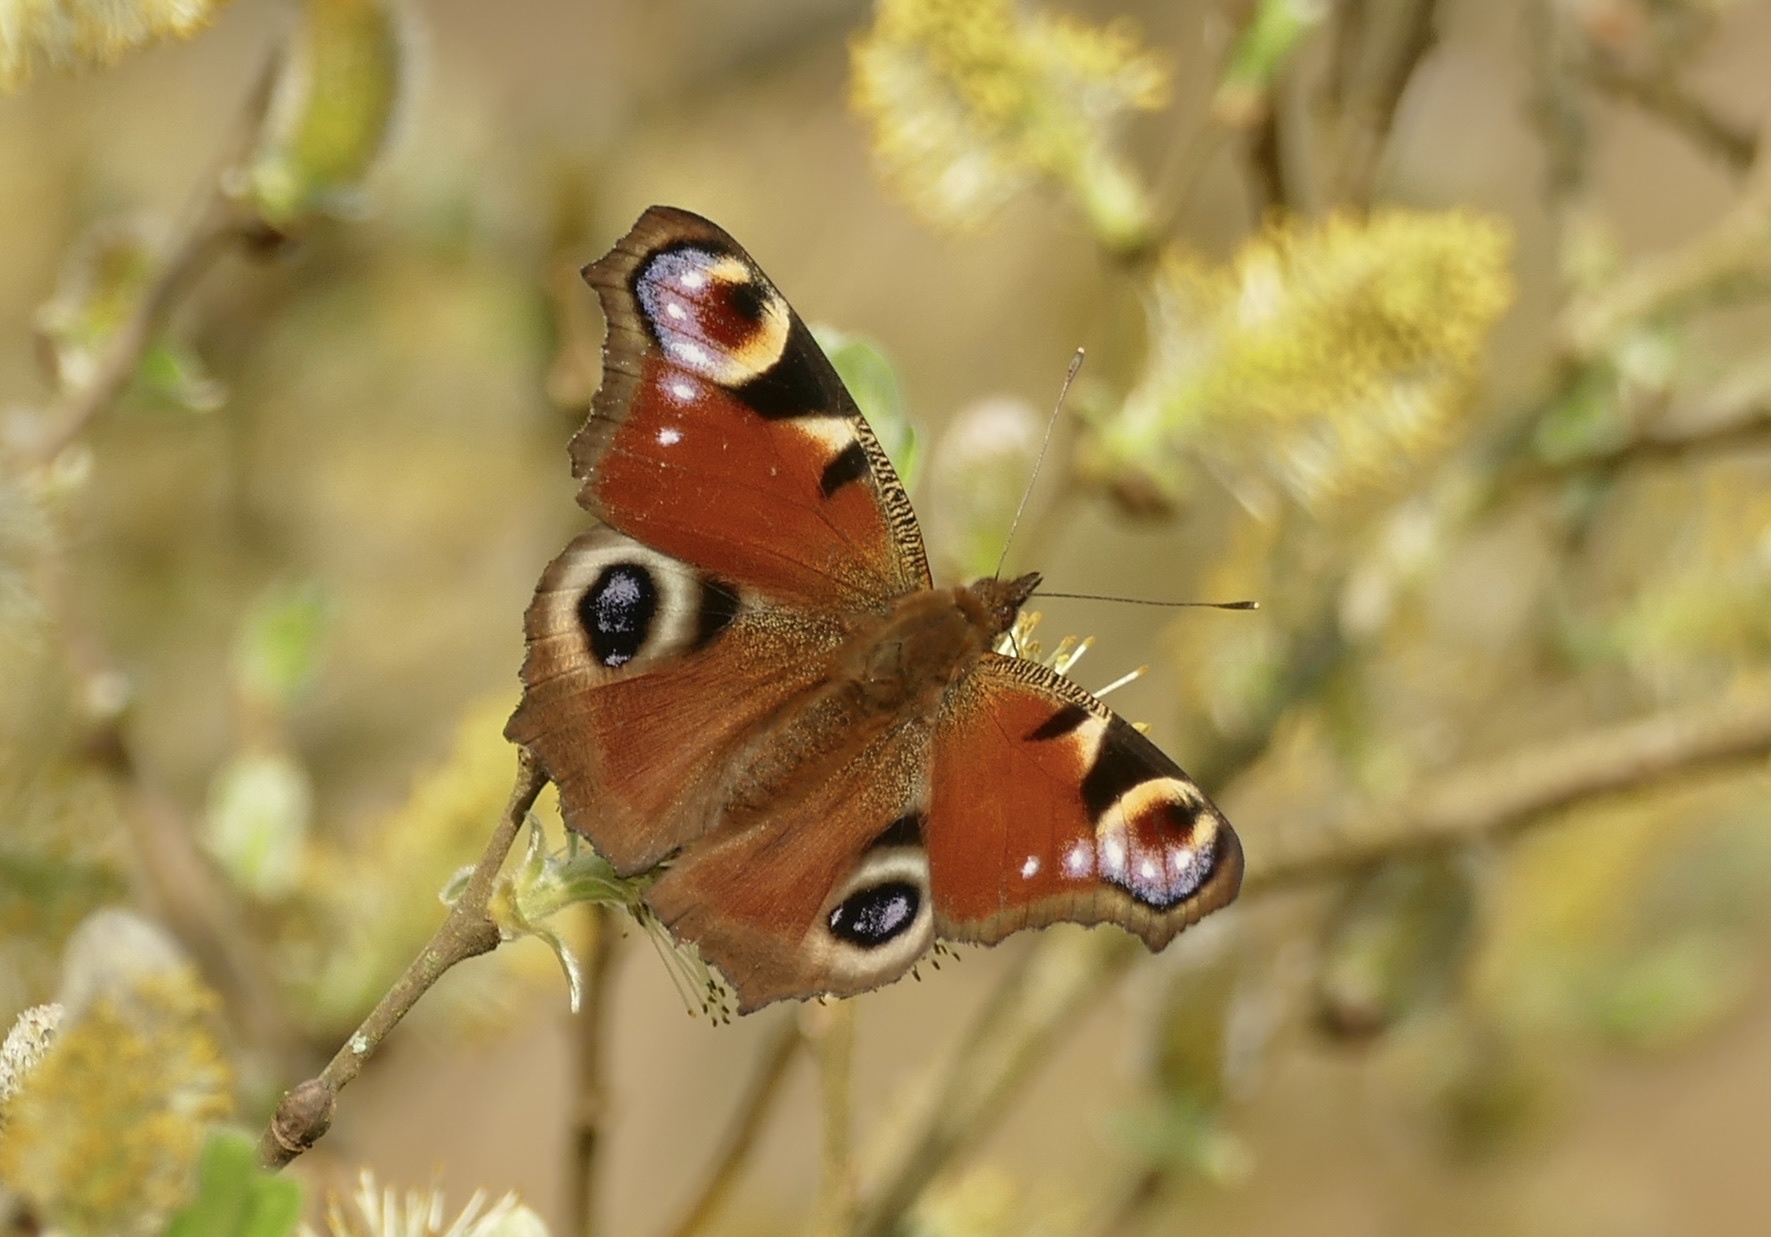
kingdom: Animalia
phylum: Arthropoda
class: Insecta
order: Lepidoptera
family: Nymphalidae
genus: Aglais
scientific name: Aglais io
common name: Peacock
